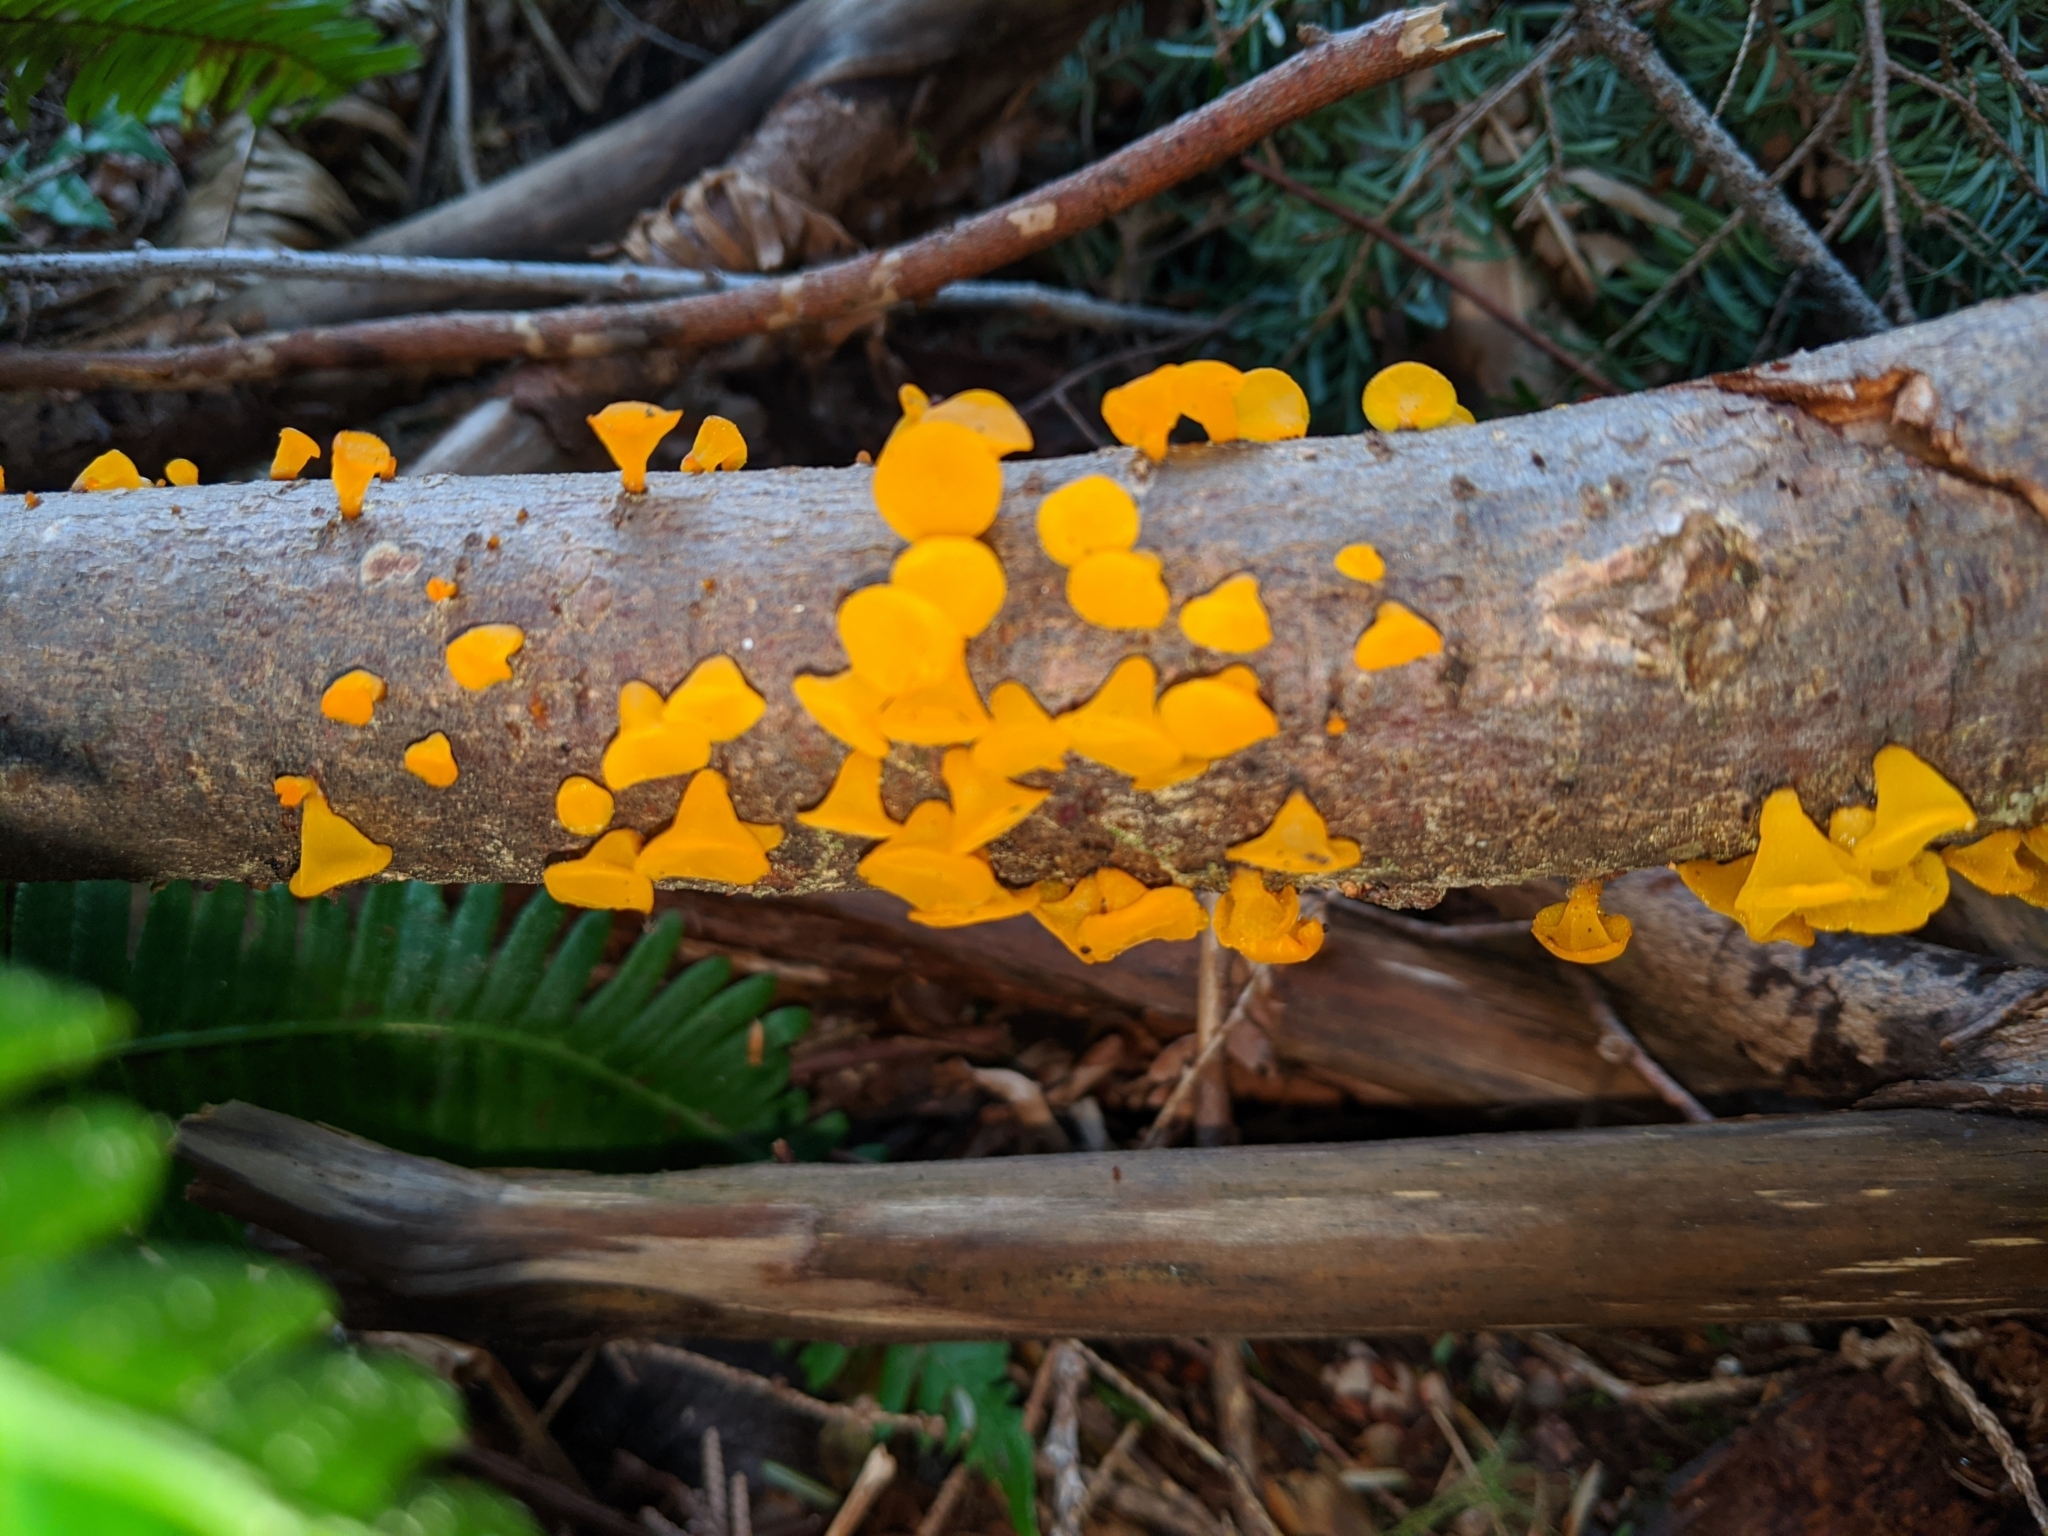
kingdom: Fungi
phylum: Basidiomycota
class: Dacrymycetes
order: Dacrymycetales
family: Dacrymycetaceae
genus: Guepiniopsis
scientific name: Guepiniopsis alpina
